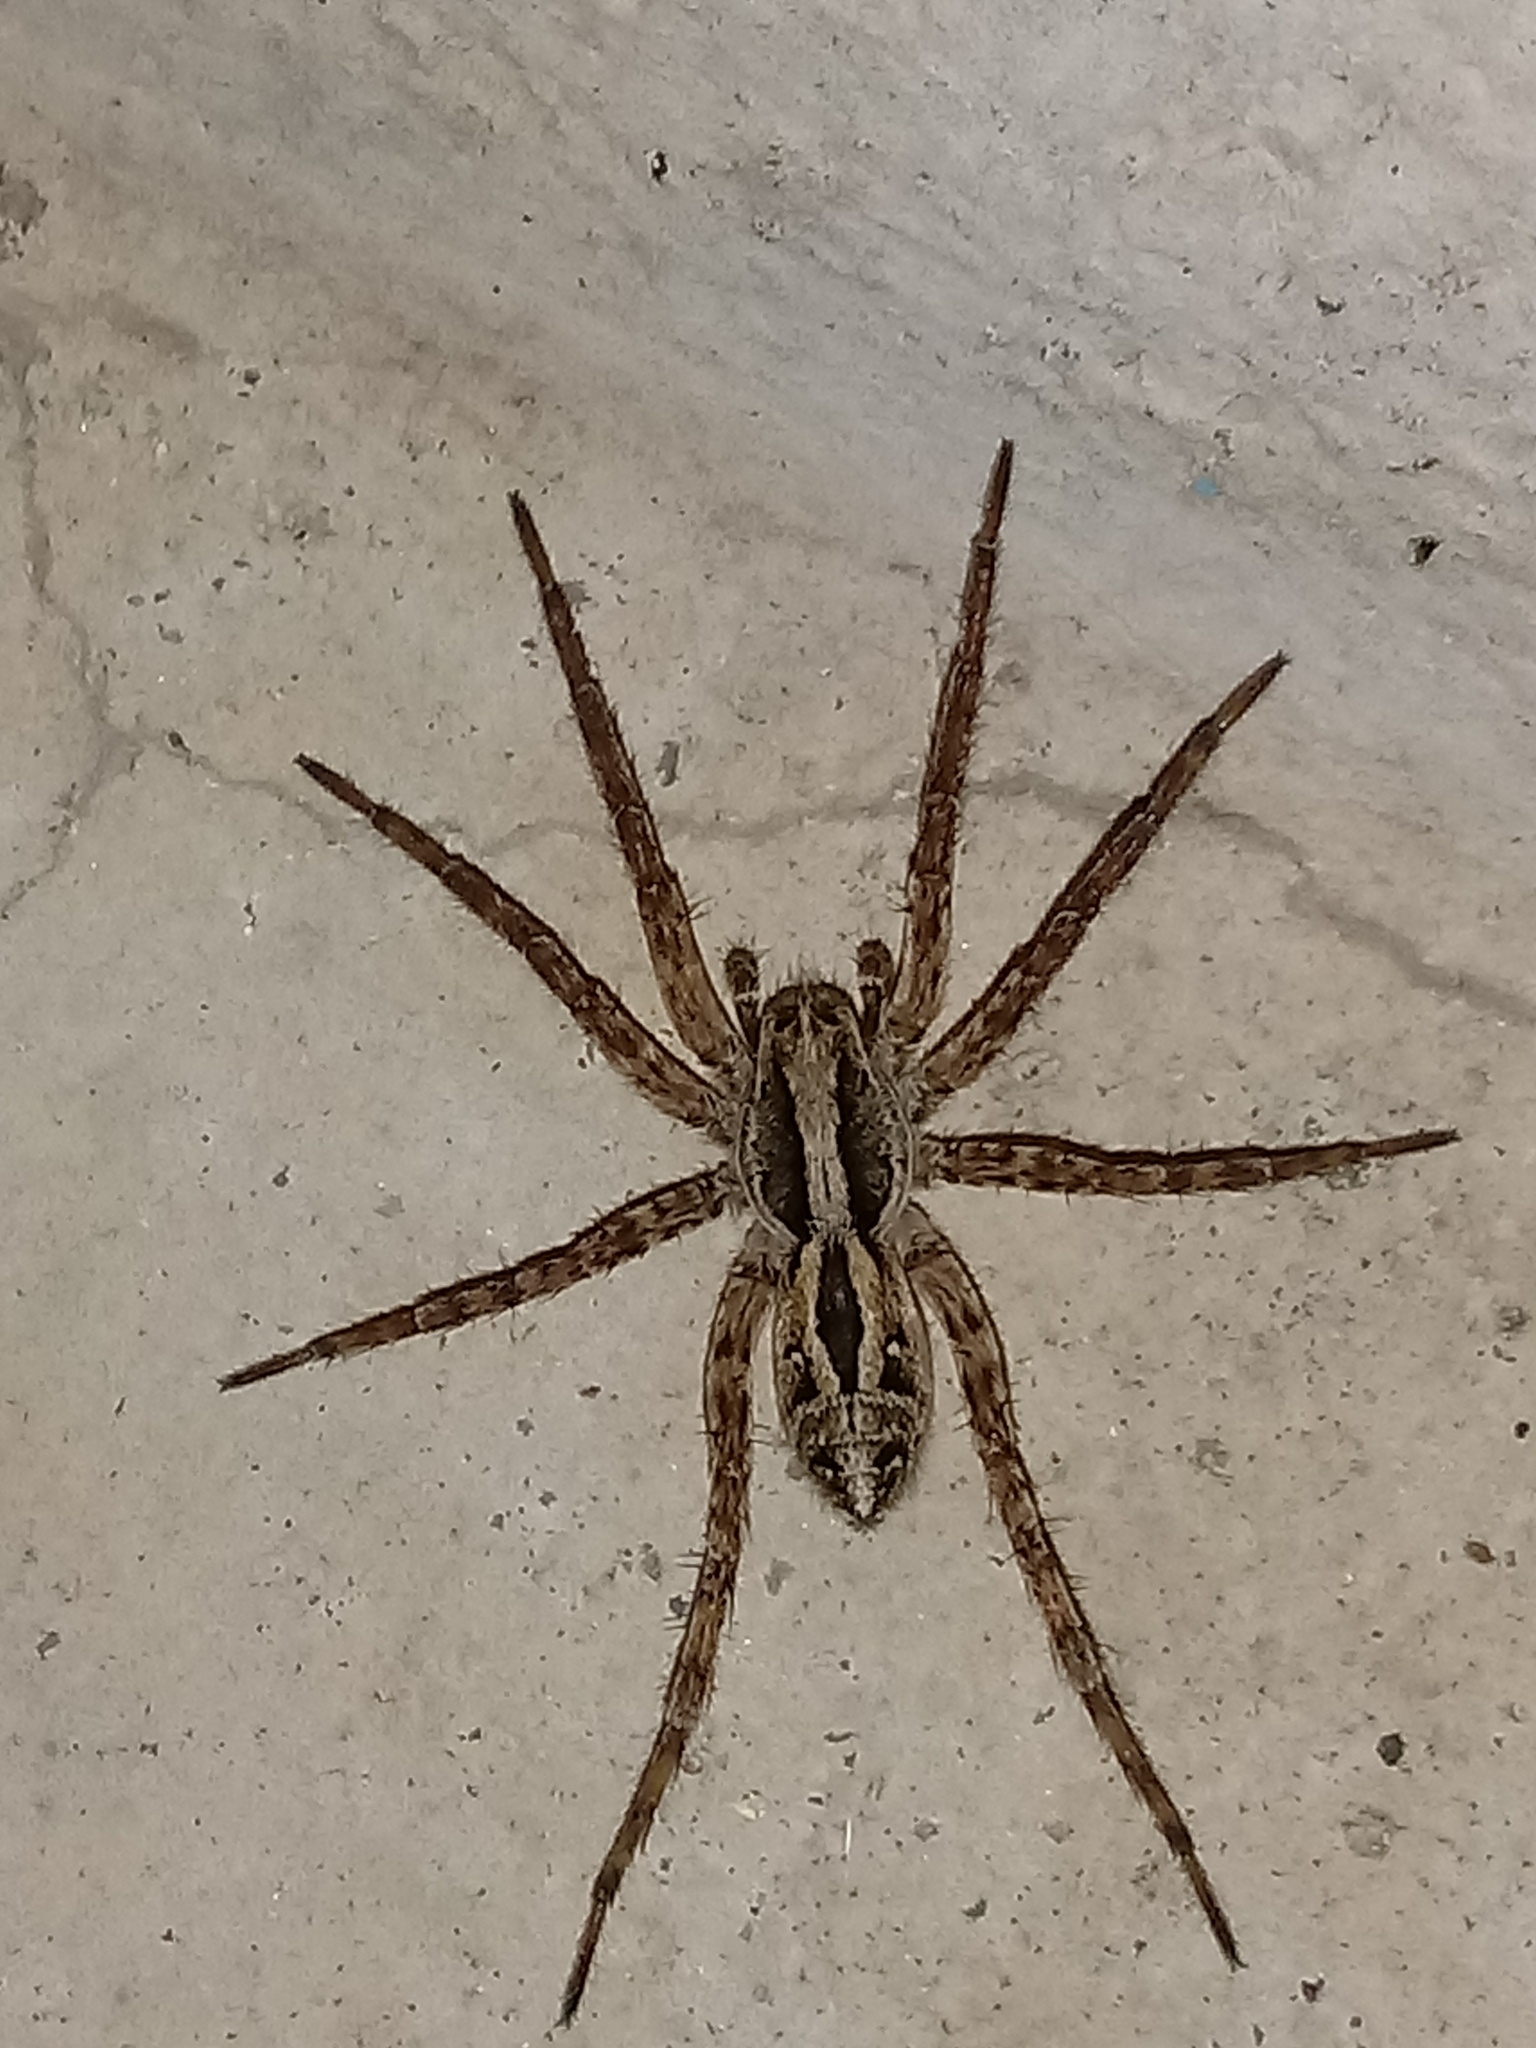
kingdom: Animalia
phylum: Arthropoda
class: Arachnida
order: Araneae
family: Lycosidae
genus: Schizocosa
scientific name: Schizocosa mccooki
